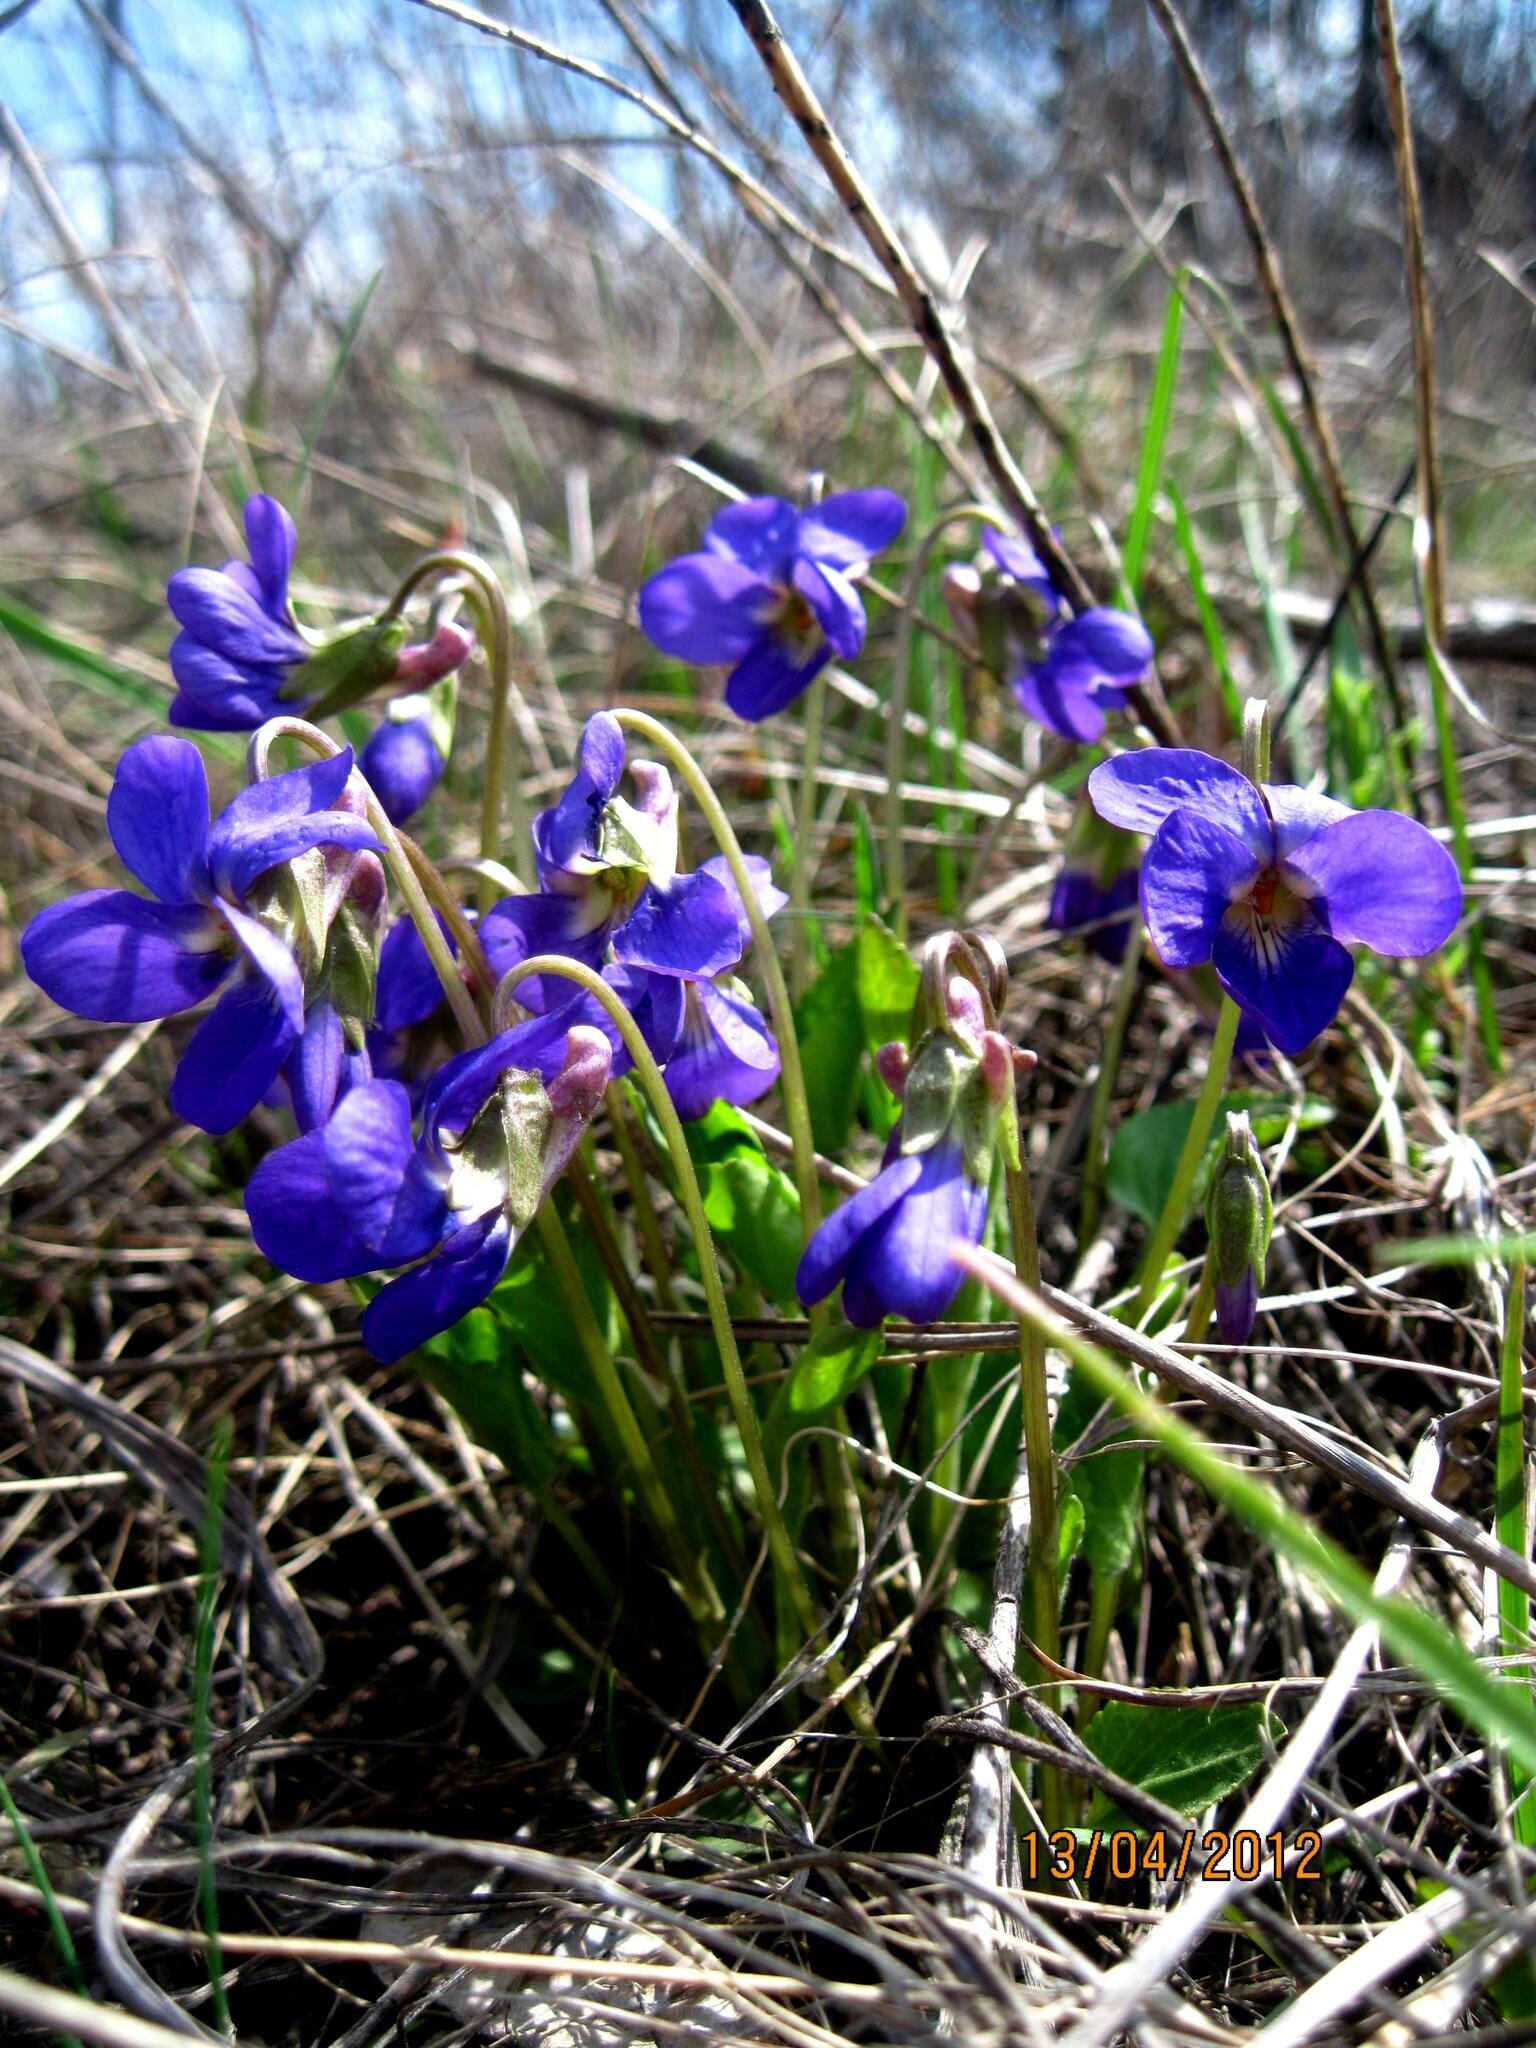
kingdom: Plantae
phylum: Tracheophyta
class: Magnoliopsida
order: Malpighiales
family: Violaceae
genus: Viola
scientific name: Viola ambigua
